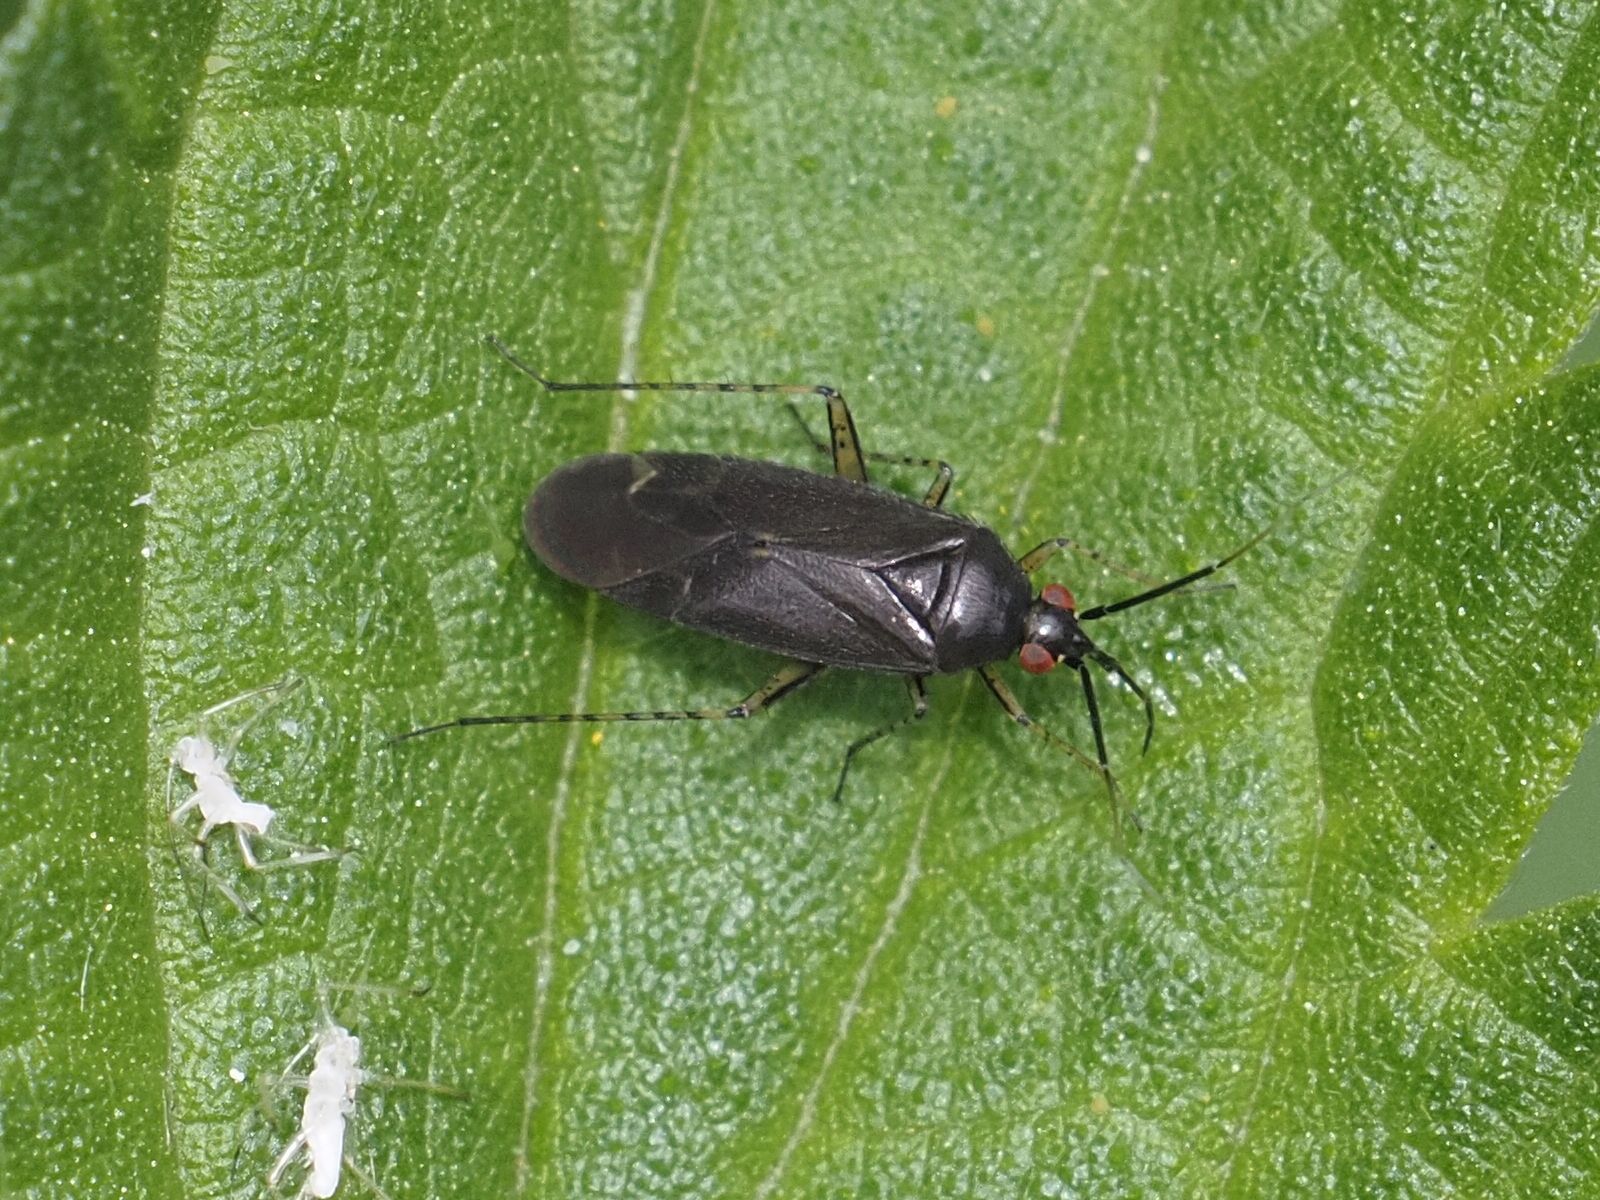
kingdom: Animalia
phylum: Arthropoda
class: Insecta
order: Hemiptera
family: Miridae
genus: Plagiognathus
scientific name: Plagiognathus arbustorum
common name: Plant bug
